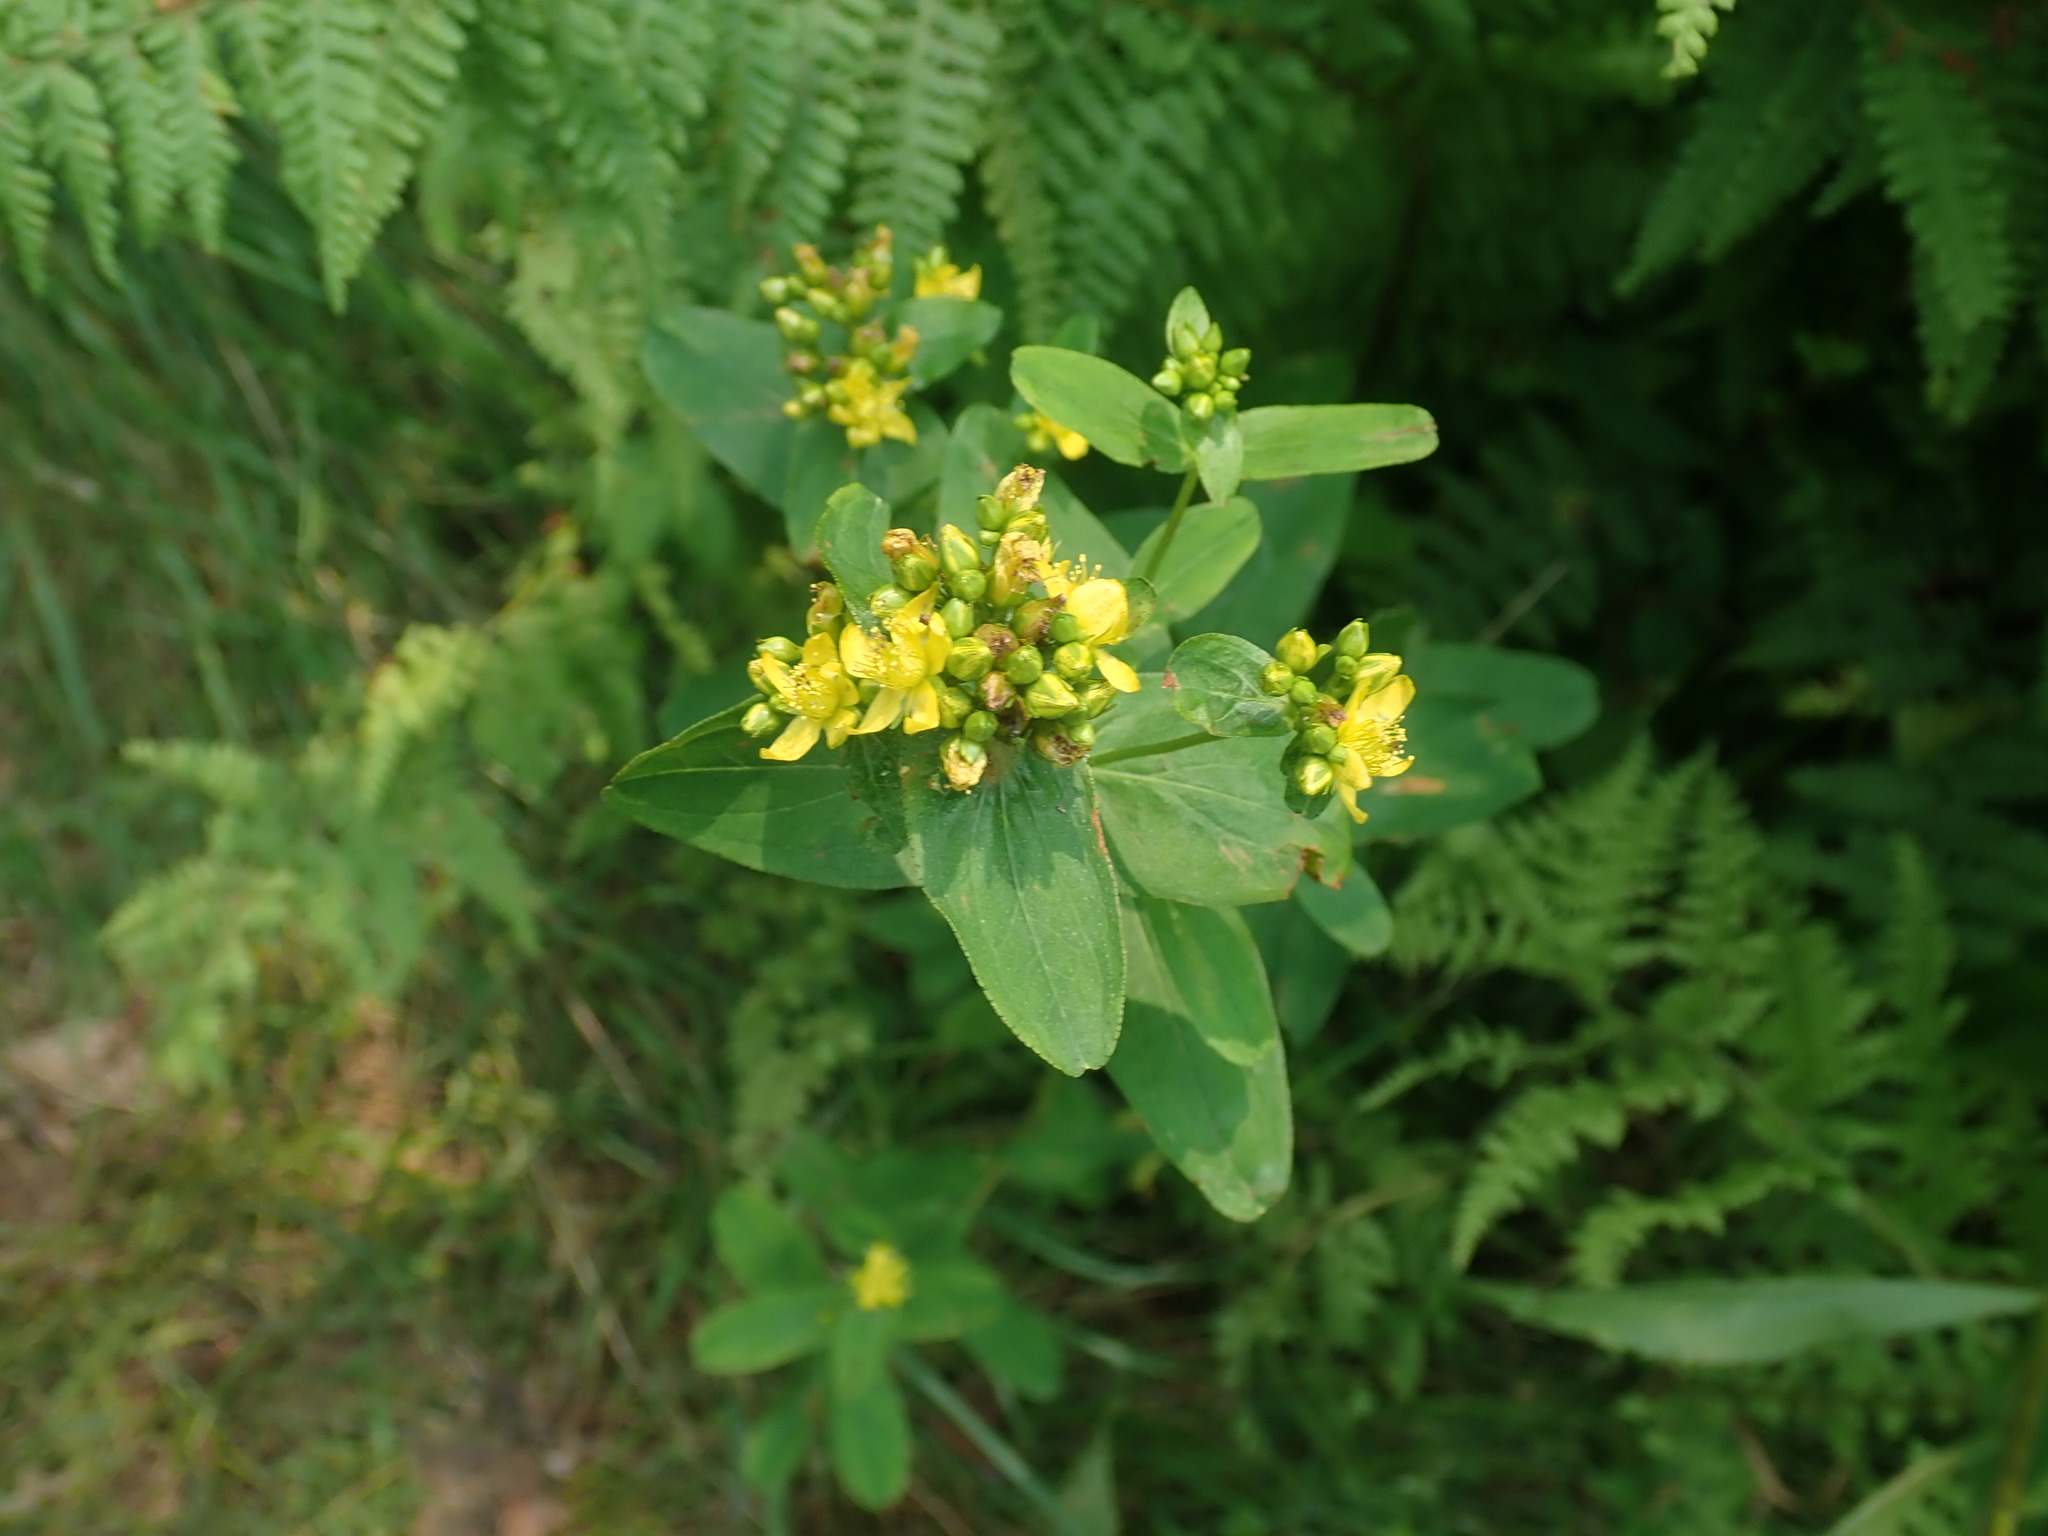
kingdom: Plantae
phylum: Tracheophyta
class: Magnoliopsida
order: Malpighiales
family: Hypericaceae
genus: Hypericum
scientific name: Hypericum punctatum
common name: Spotted st. john's-wort
